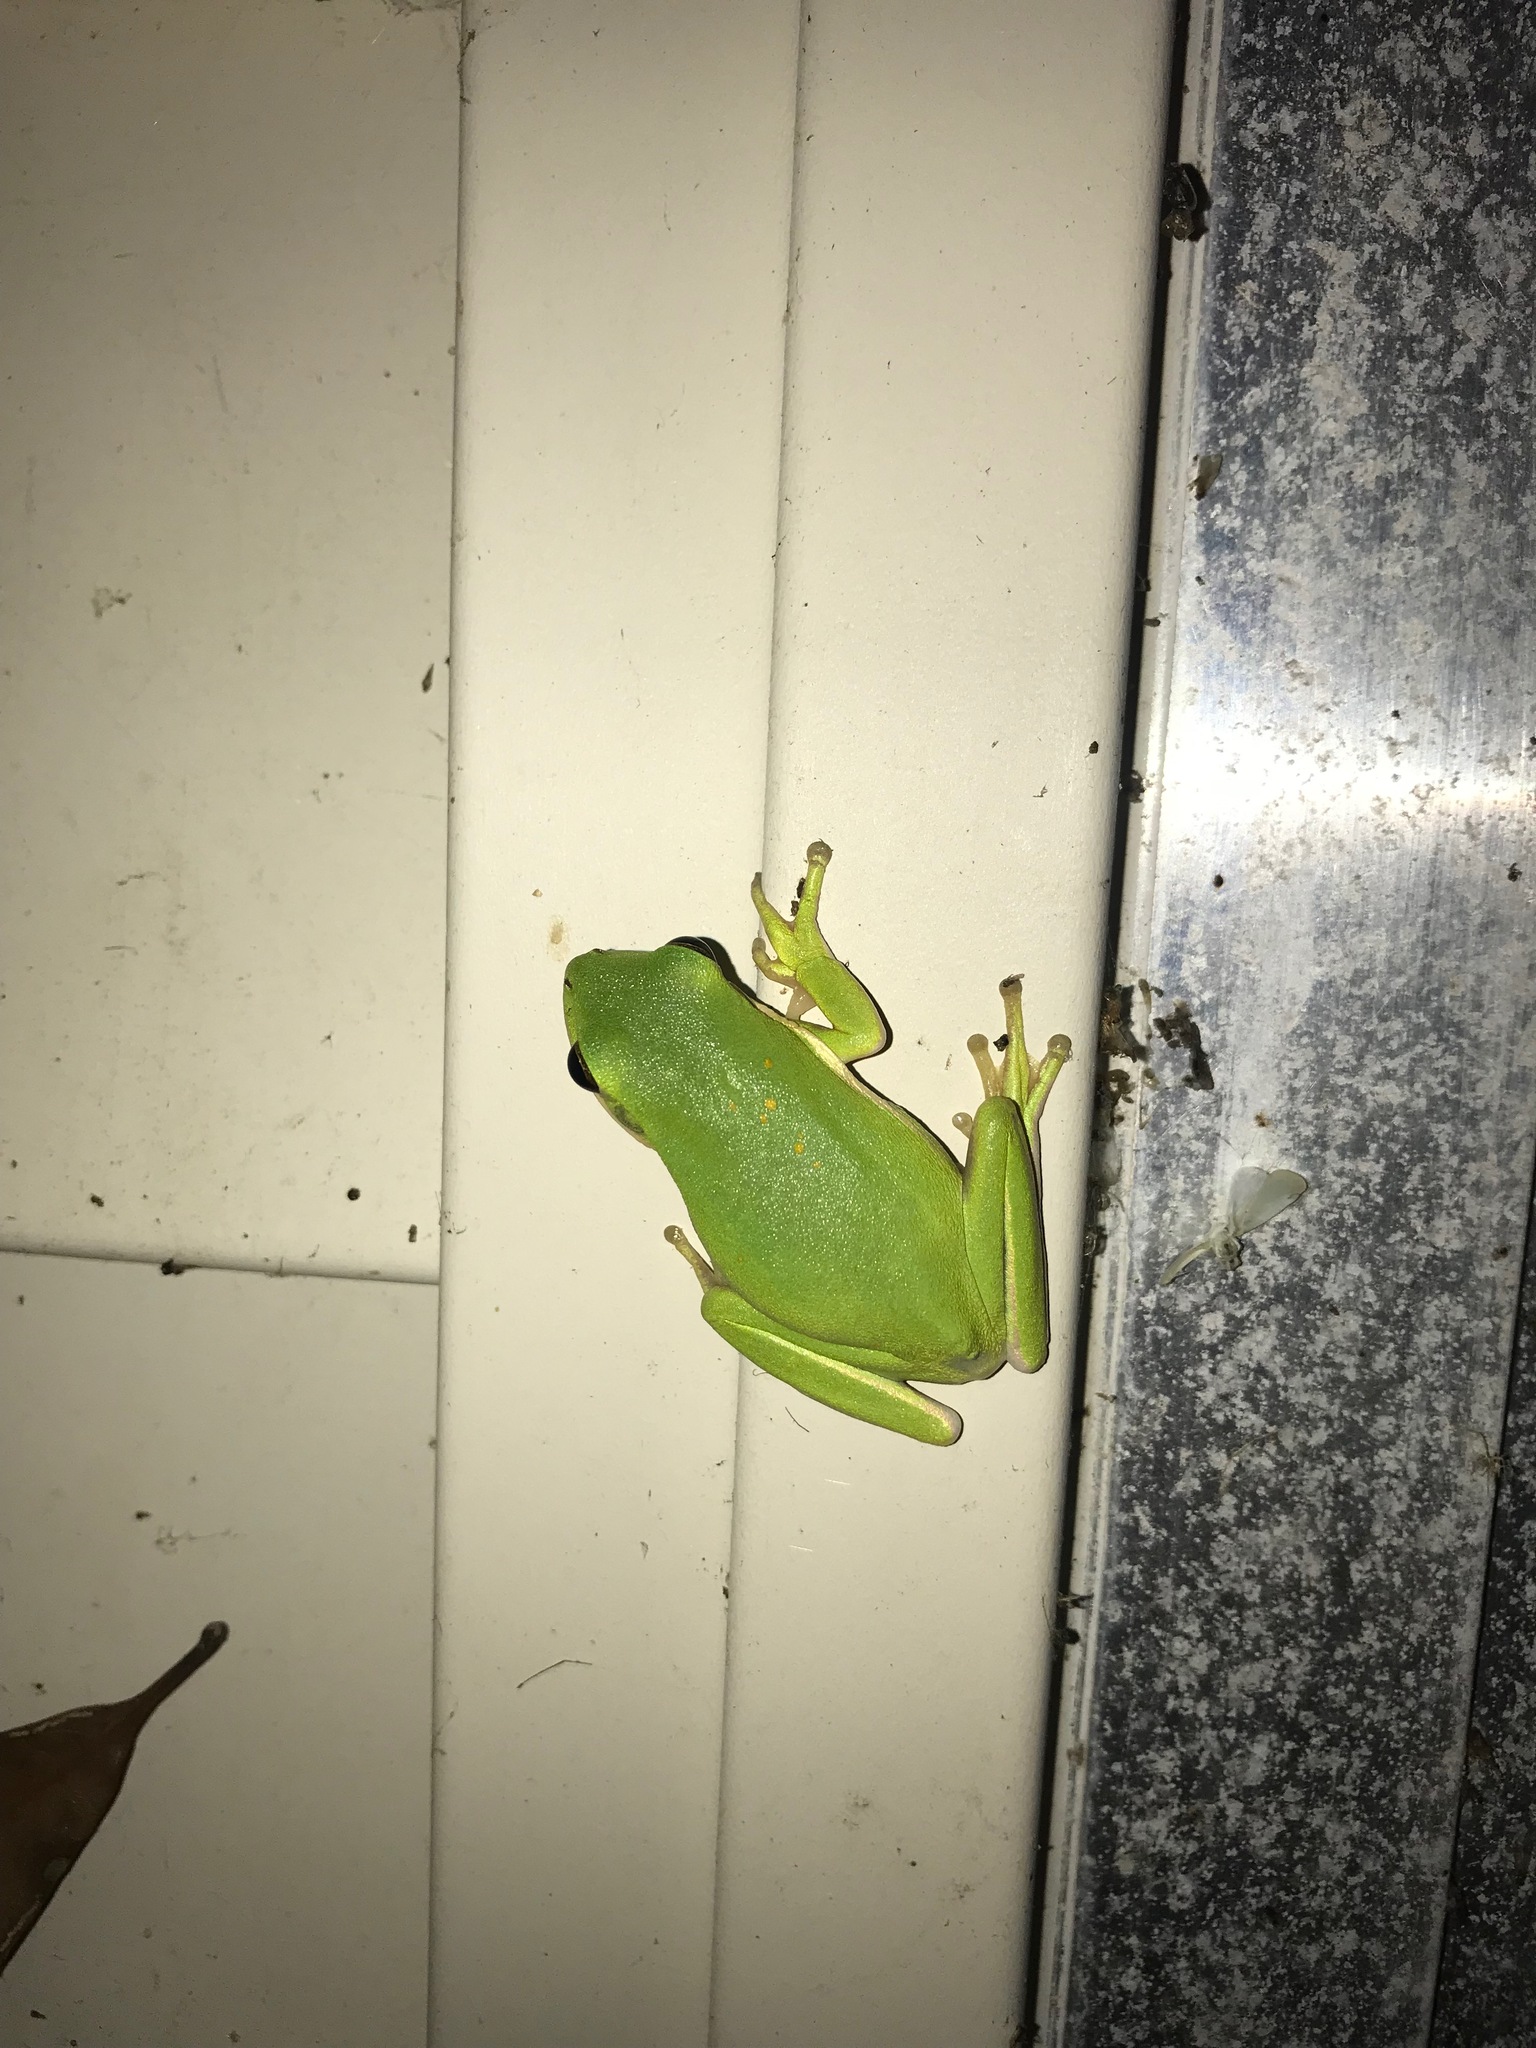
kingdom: Animalia
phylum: Chordata
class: Amphibia
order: Anura
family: Hylidae
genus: Dryophytes
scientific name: Dryophytes cinereus
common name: Green treefrog
